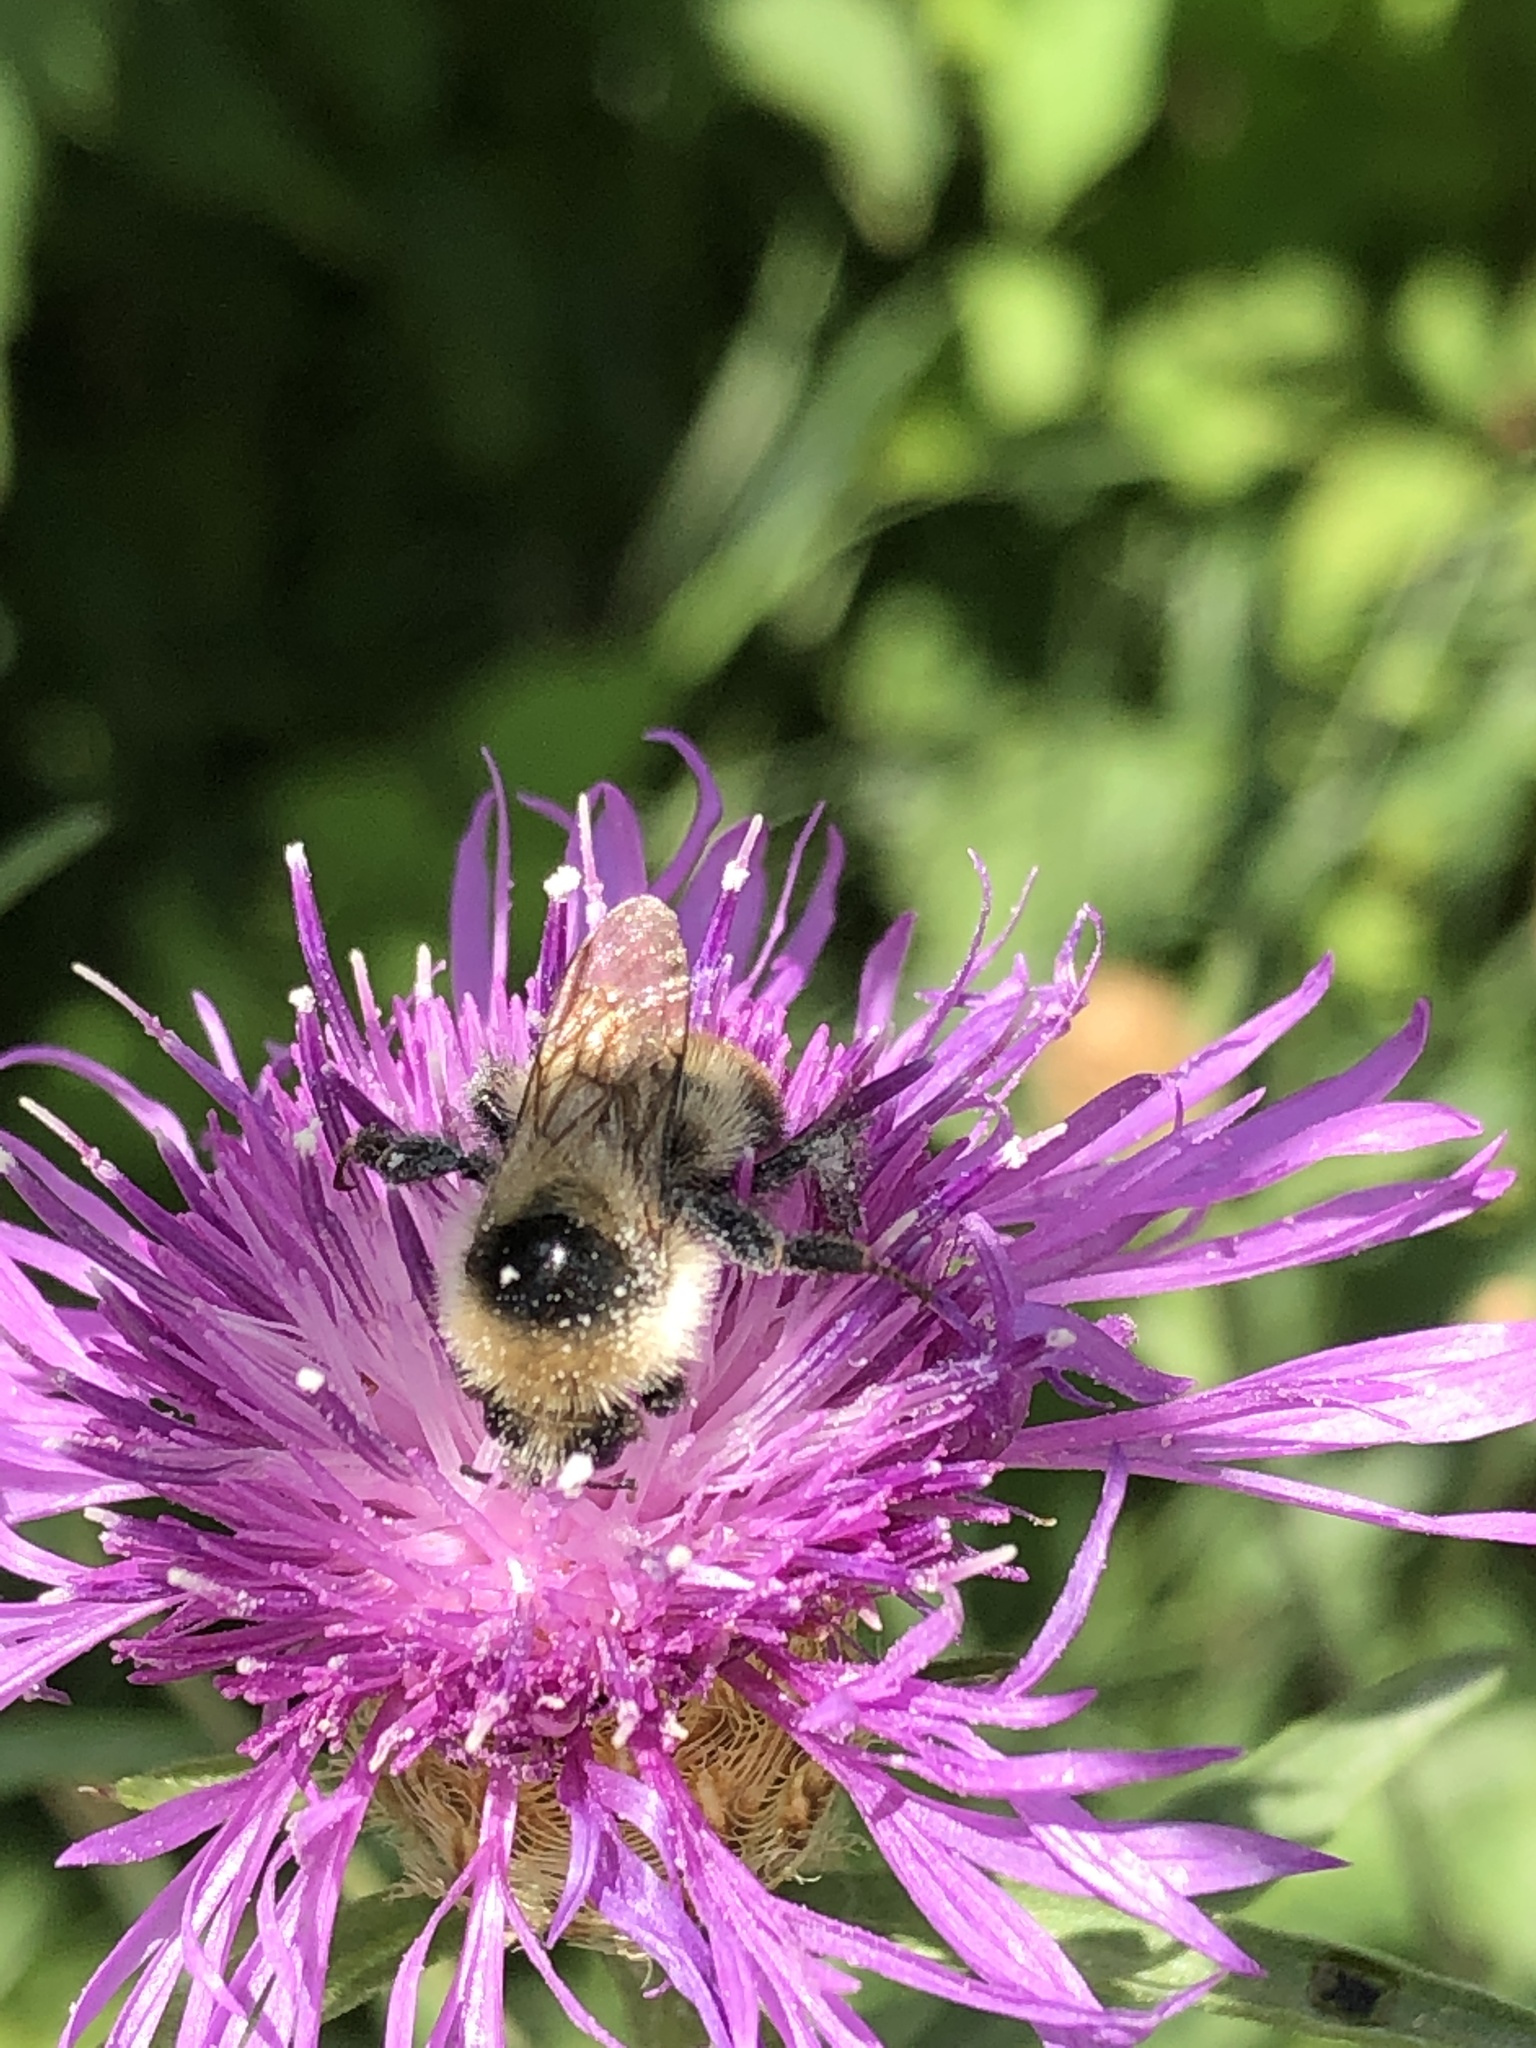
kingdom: Animalia
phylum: Arthropoda
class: Insecta
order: Hymenoptera
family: Apidae
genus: Bombus
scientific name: Bombus rufocinctus
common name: Red-belted bumble bee
